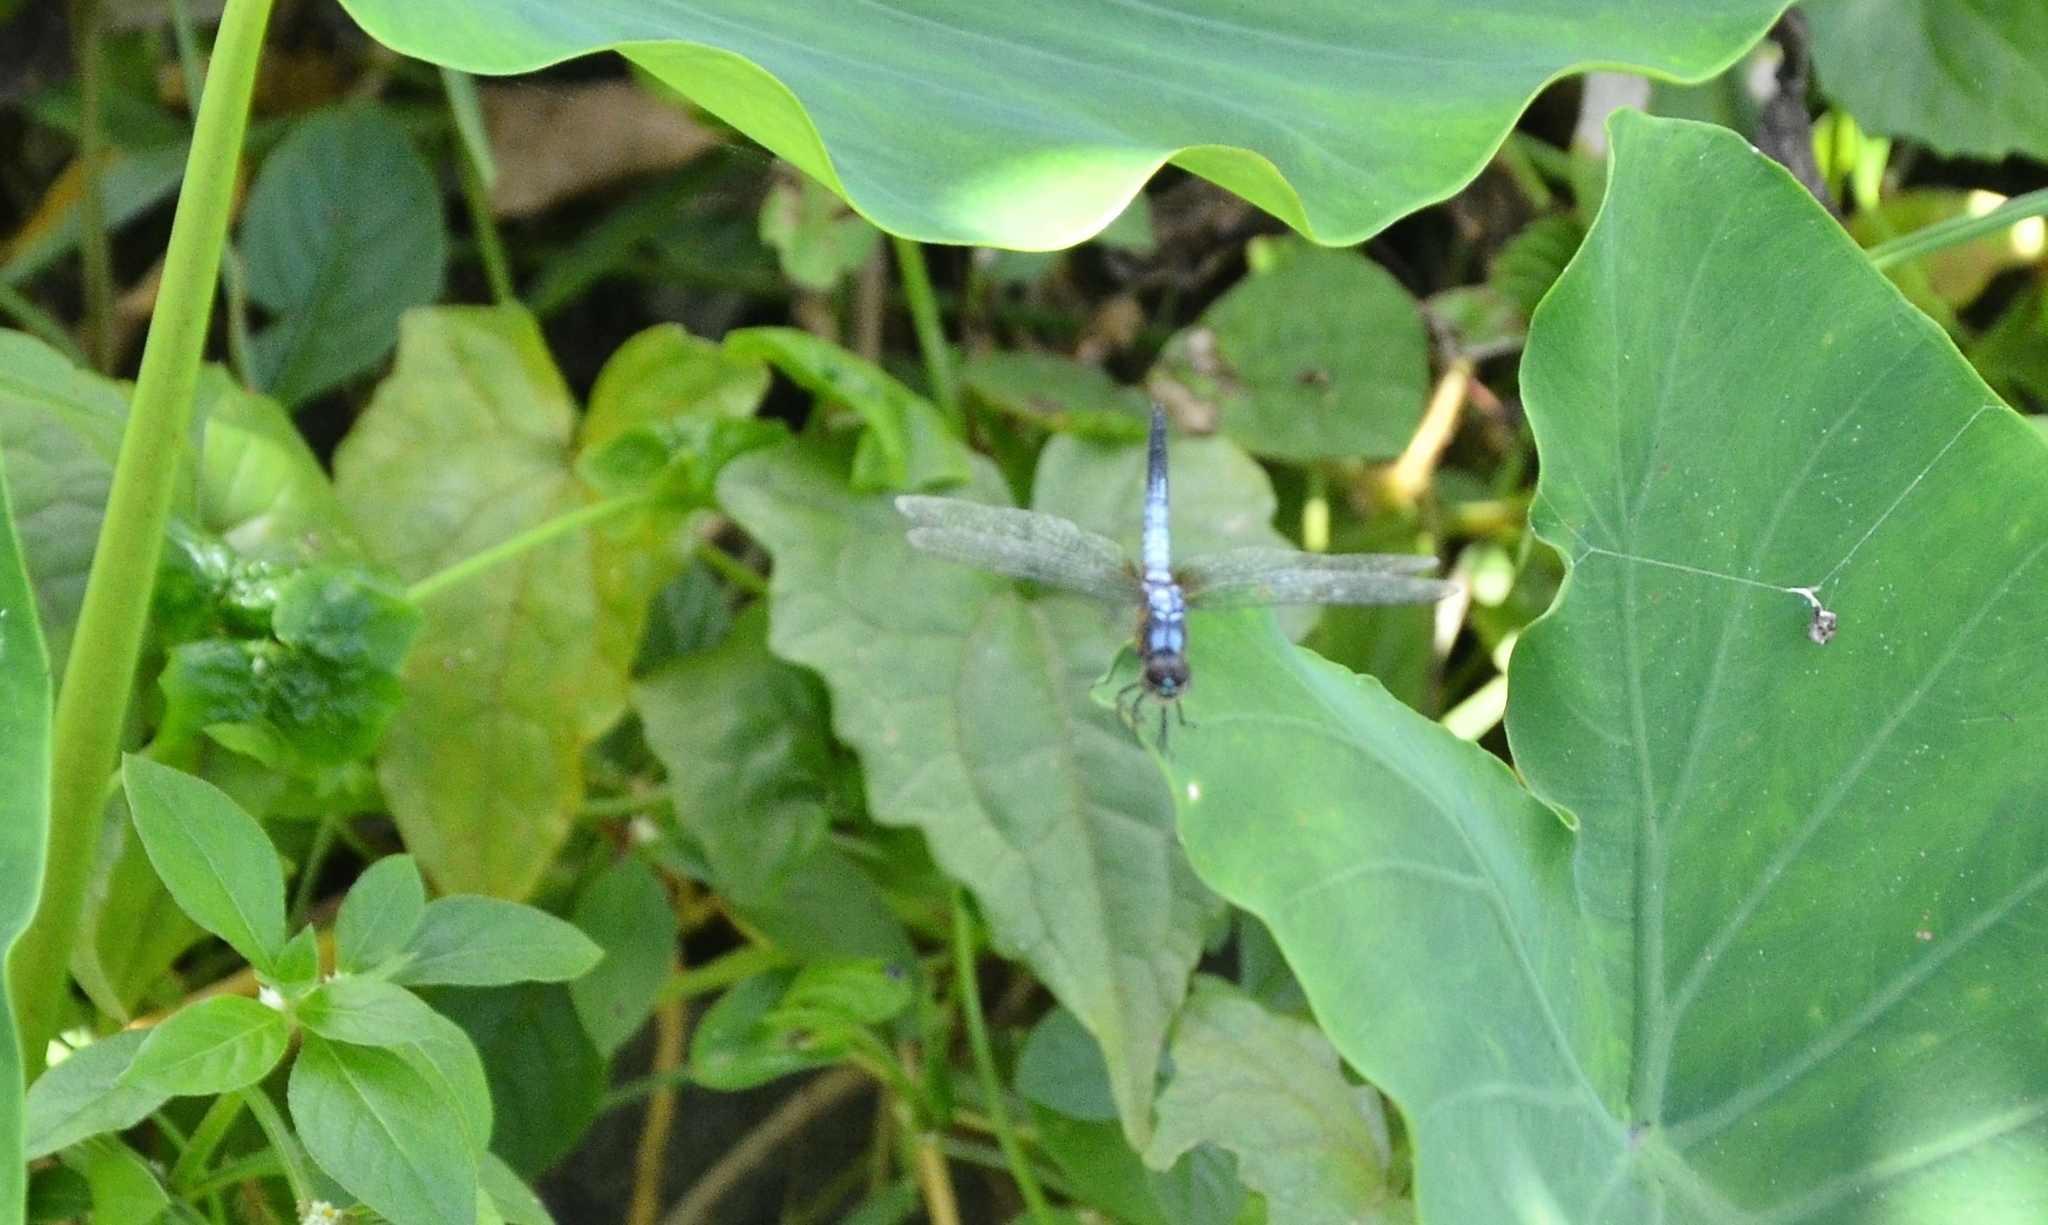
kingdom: Animalia
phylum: Arthropoda
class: Insecta
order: Odonata
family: Libellulidae
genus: Brachydiplax
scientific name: Brachydiplax chalybea
